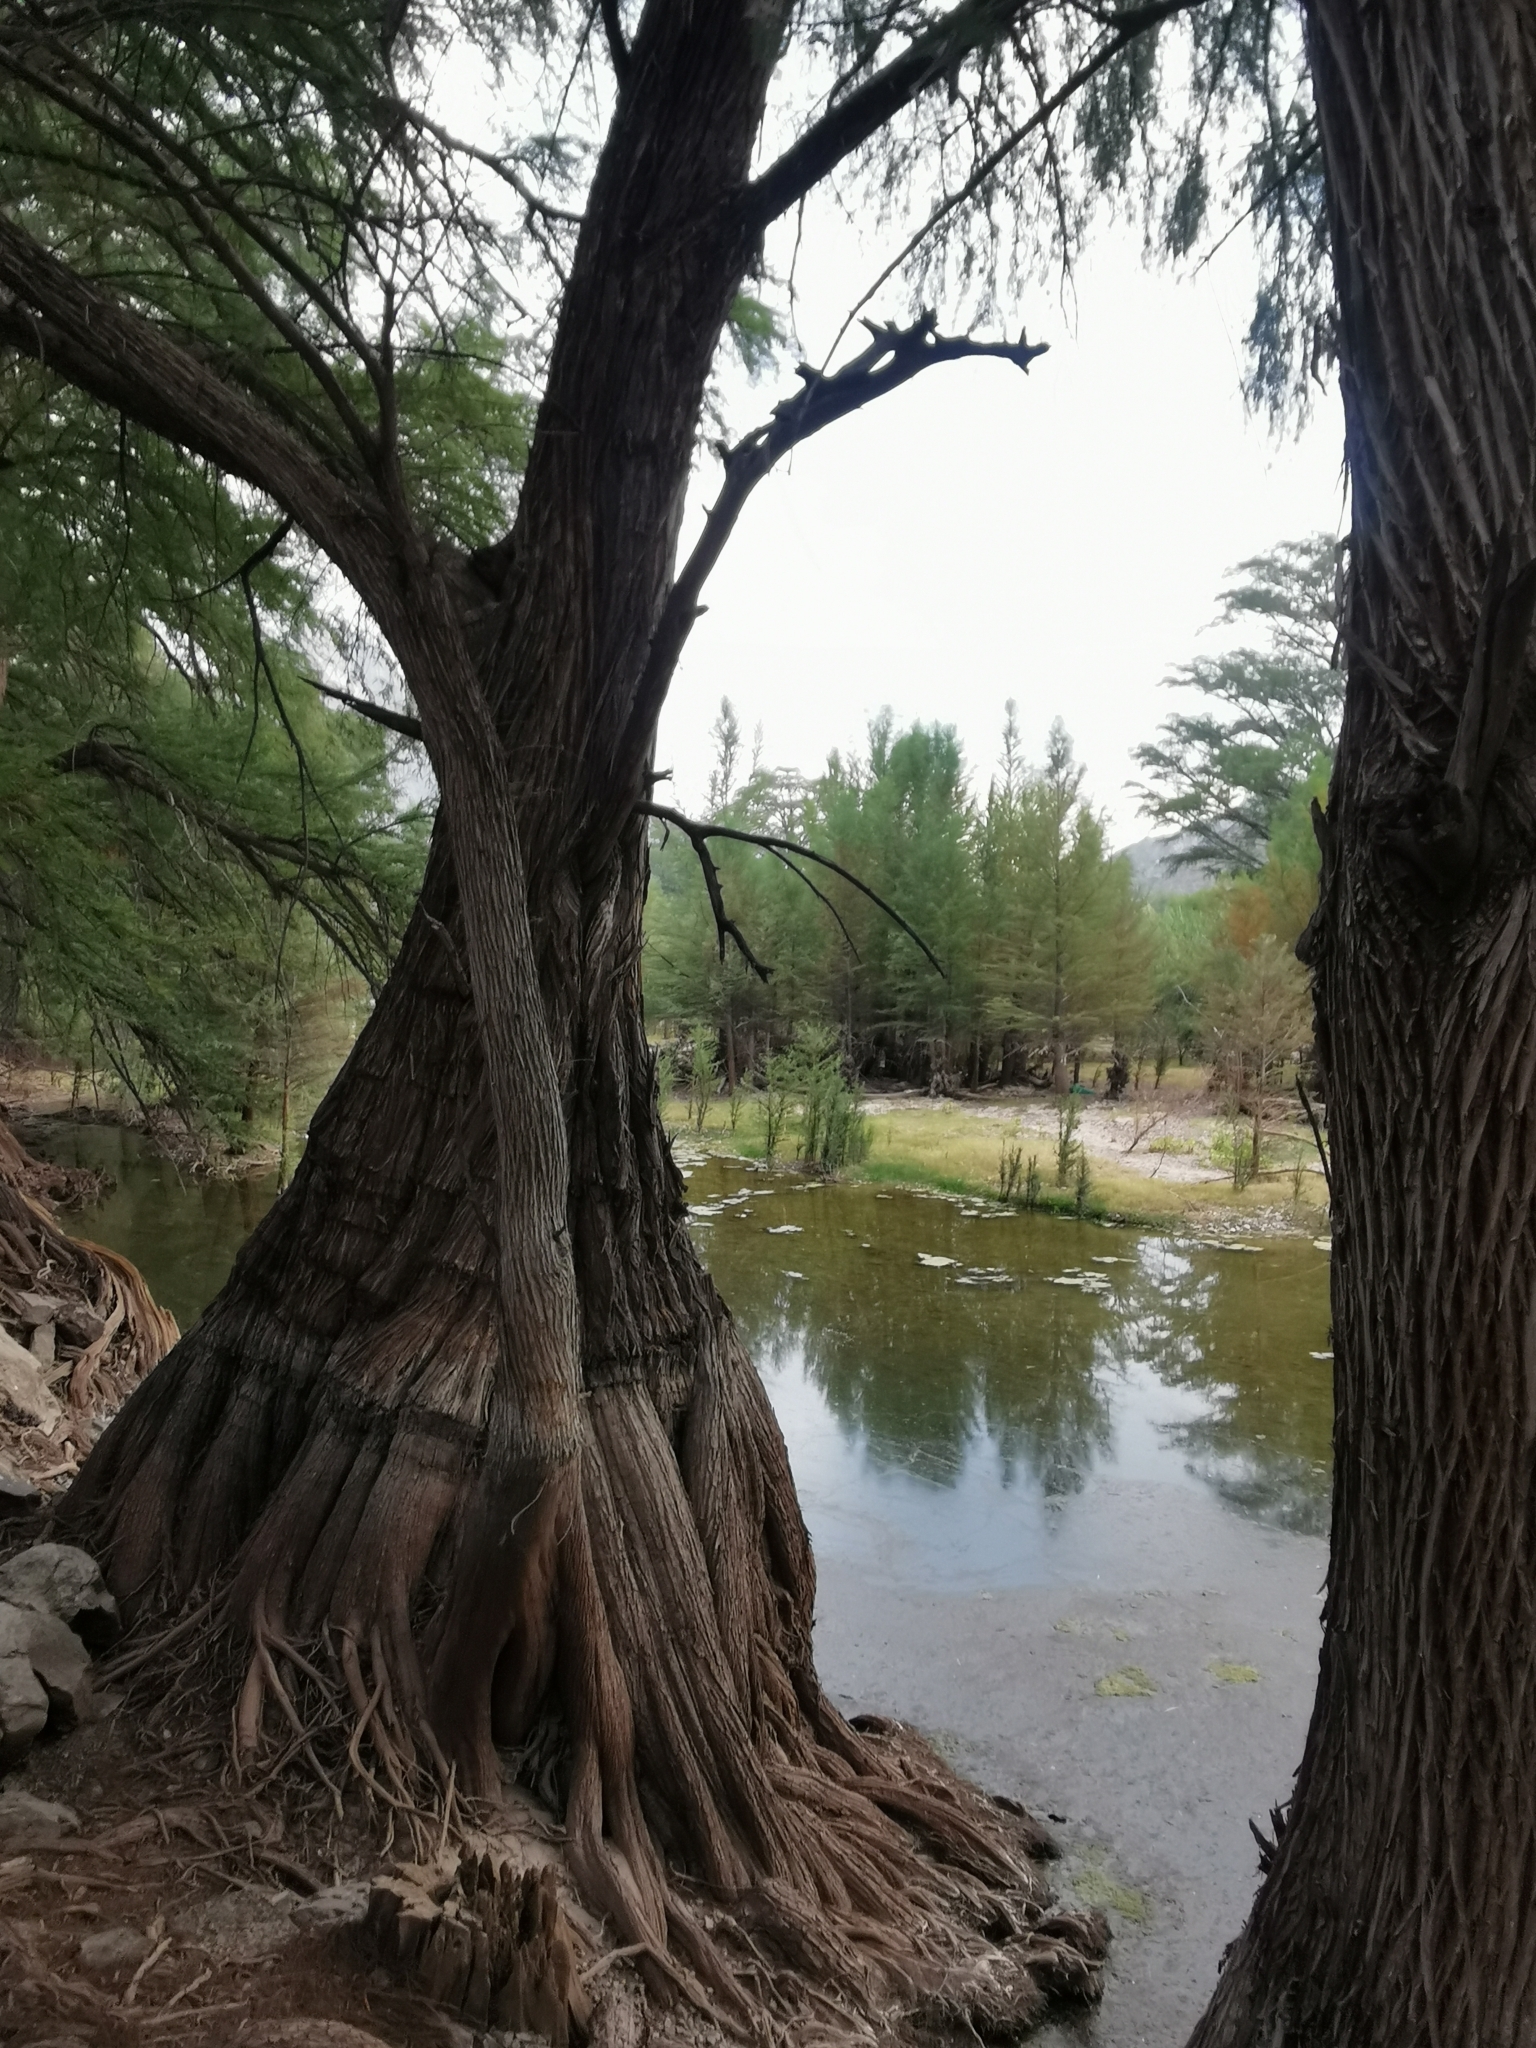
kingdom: Plantae
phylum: Tracheophyta
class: Pinopsida
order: Pinales
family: Cupressaceae
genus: Taxodium
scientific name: Taxodium mucronatum
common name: Montezume bald cypress
